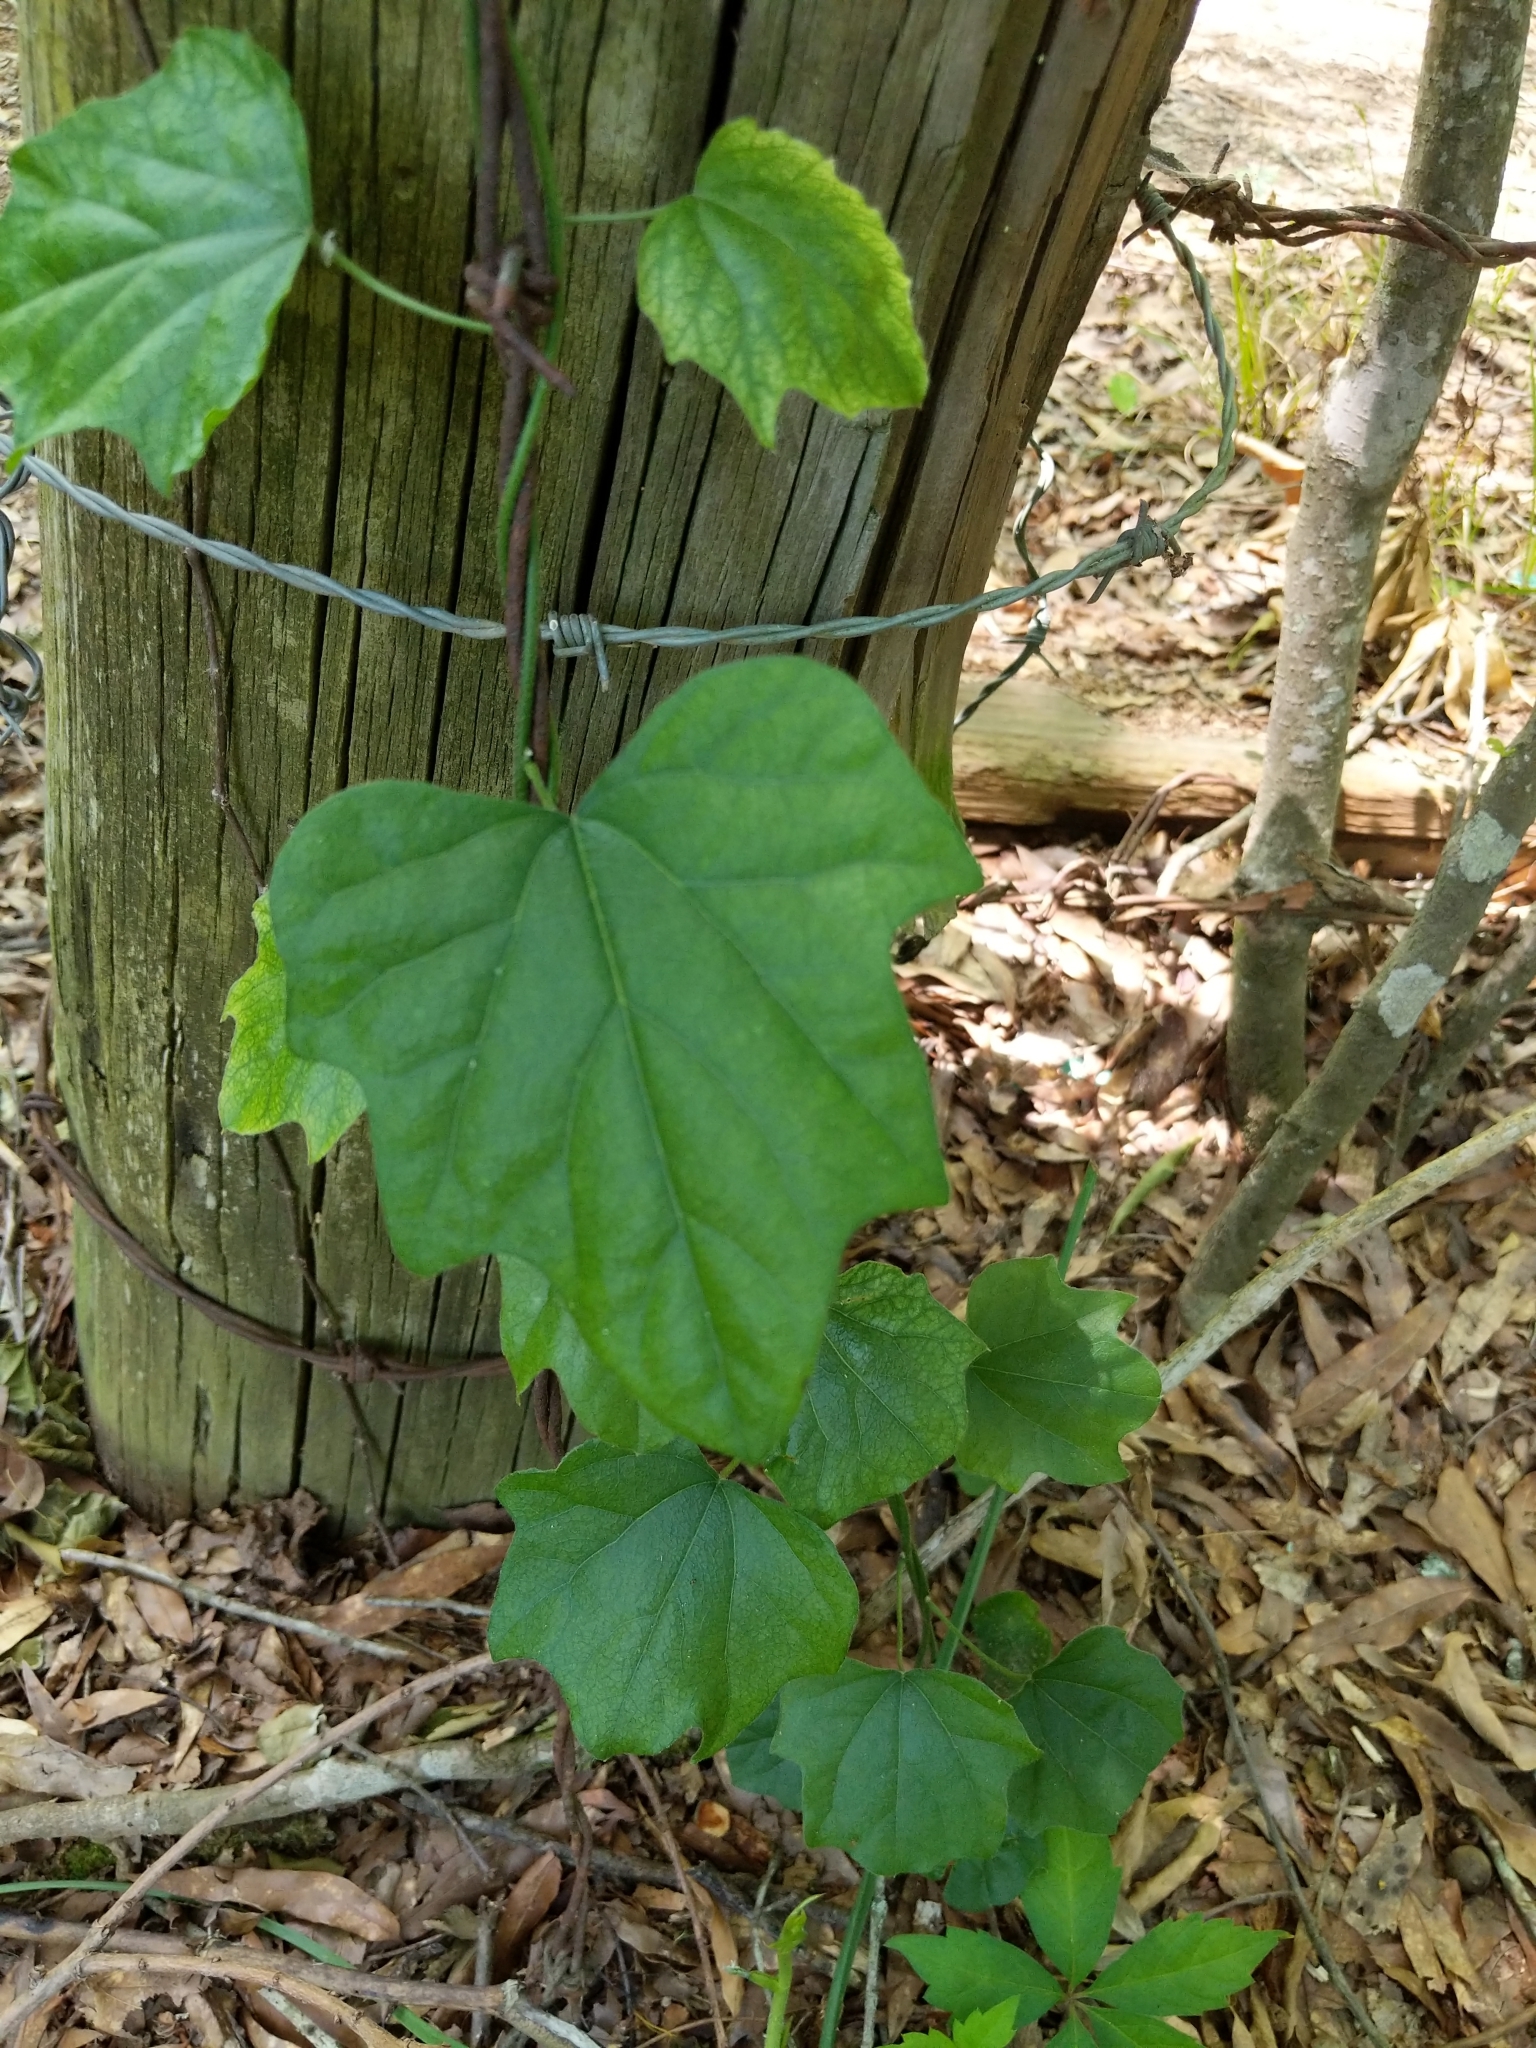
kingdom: Plantae
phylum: Tracheophyta
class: Magnoliopsida
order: Ranunculales
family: Menispermaceae
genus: Cocculus
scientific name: Cocculus carolinus
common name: Carolina moonseed
